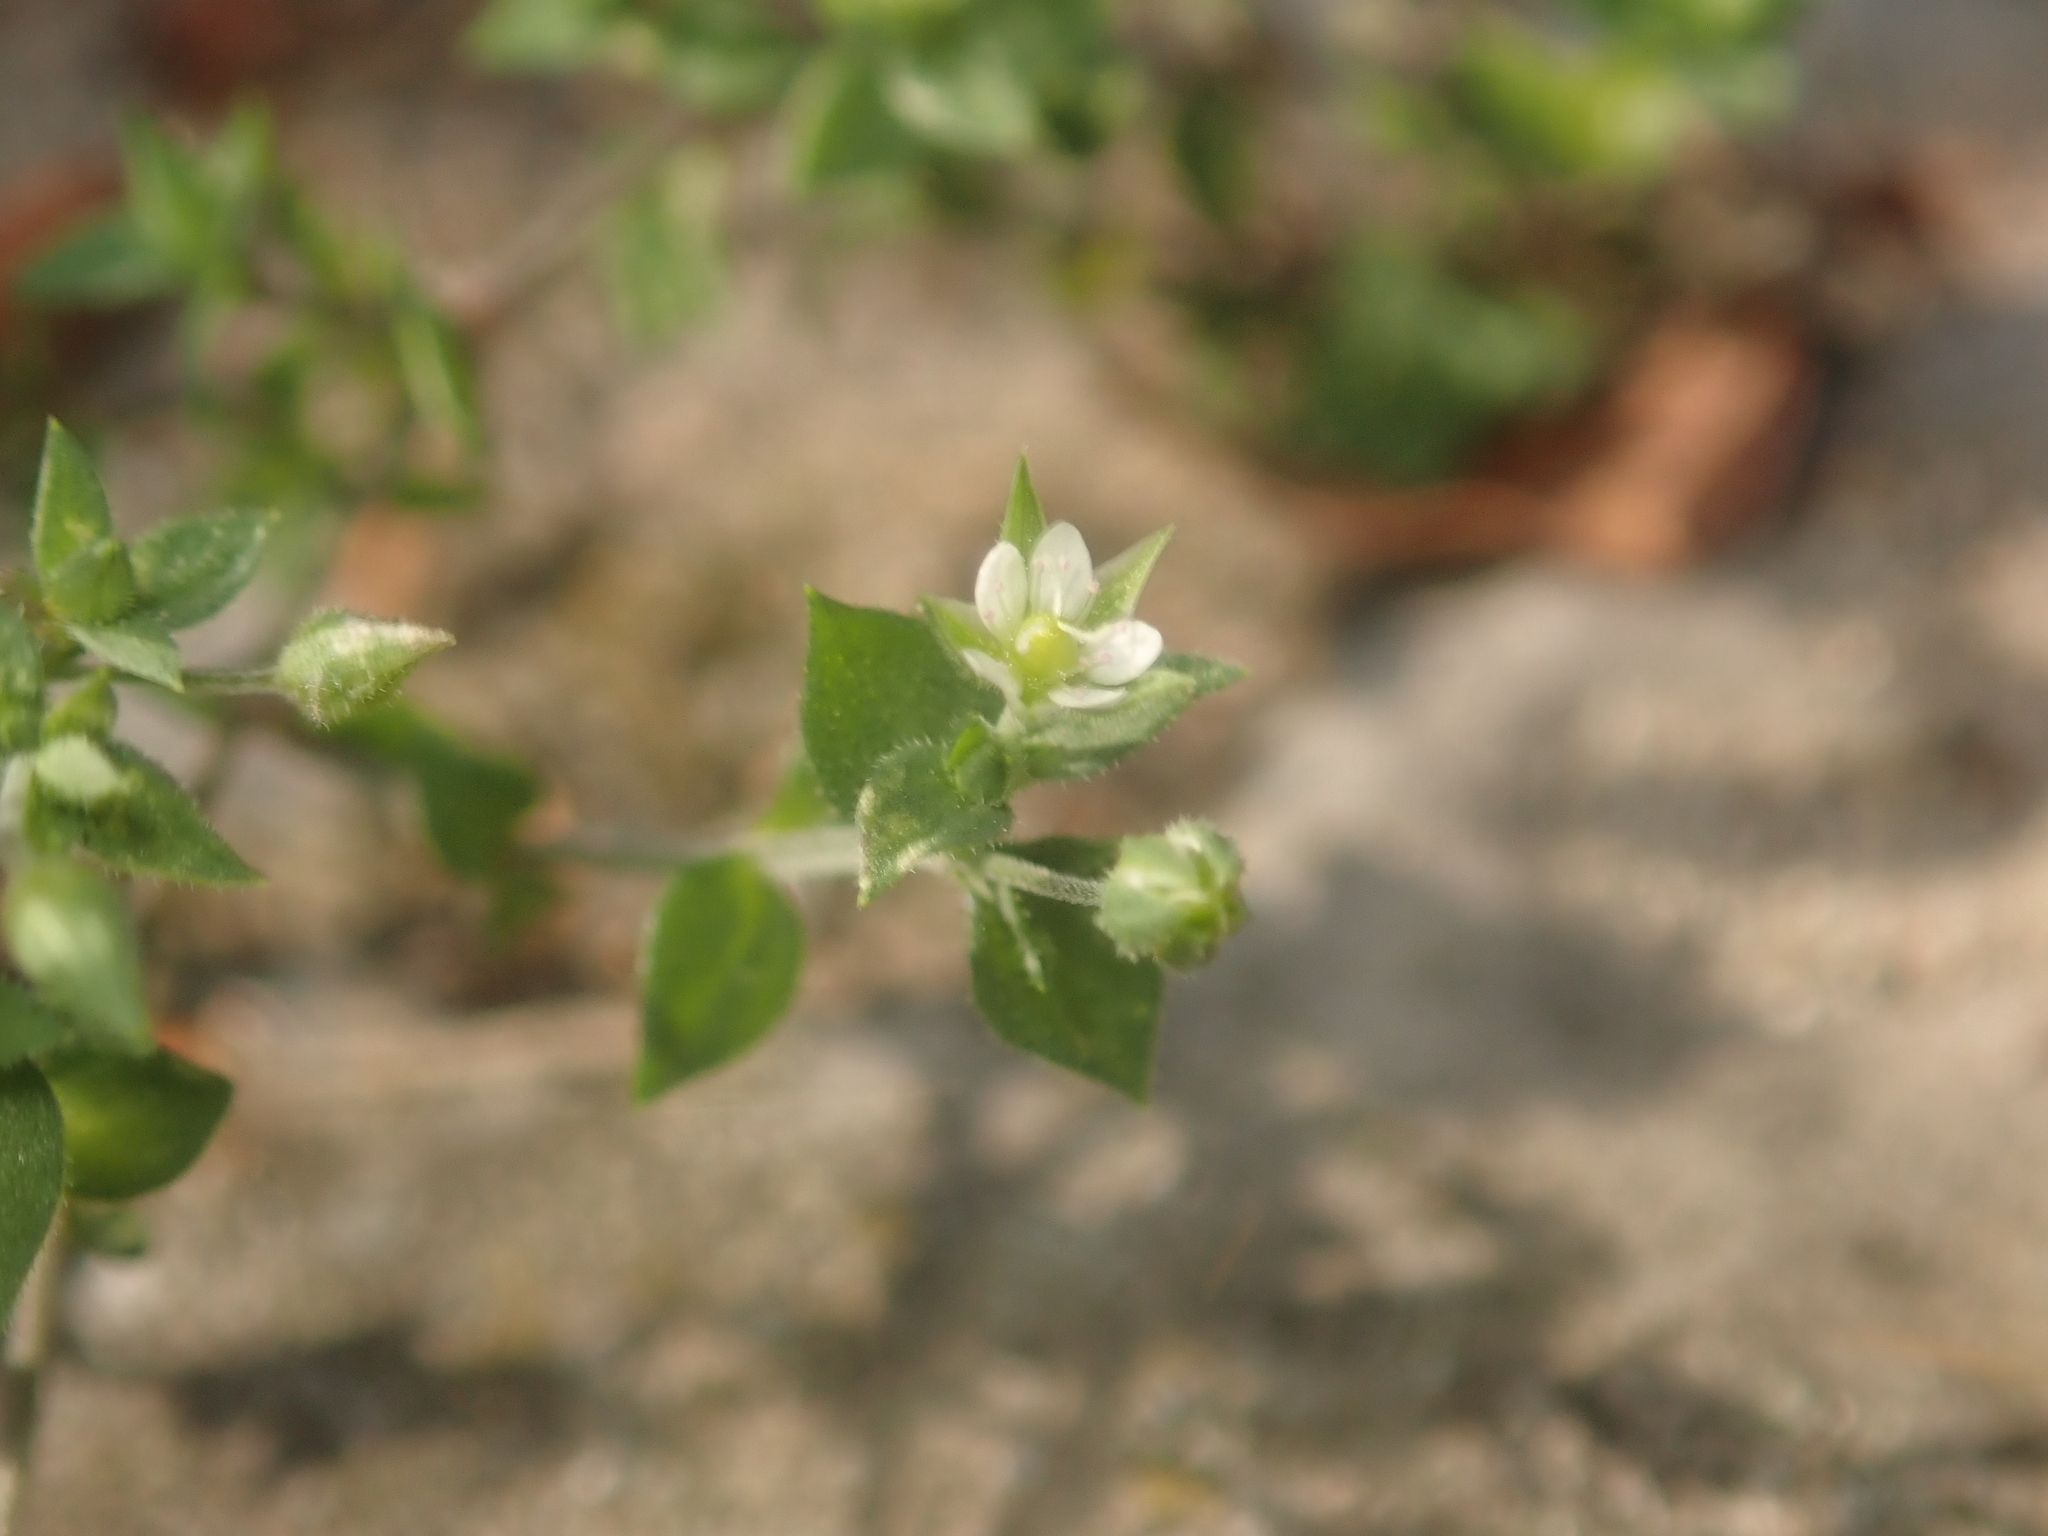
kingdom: Plantae
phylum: Tracheophyta
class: Magnoliopsida
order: Caryophyllales
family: Caryophyllaceae
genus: Arenaria
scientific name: Arenaria serpyllifolia
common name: Thyme-leaved sandwort
